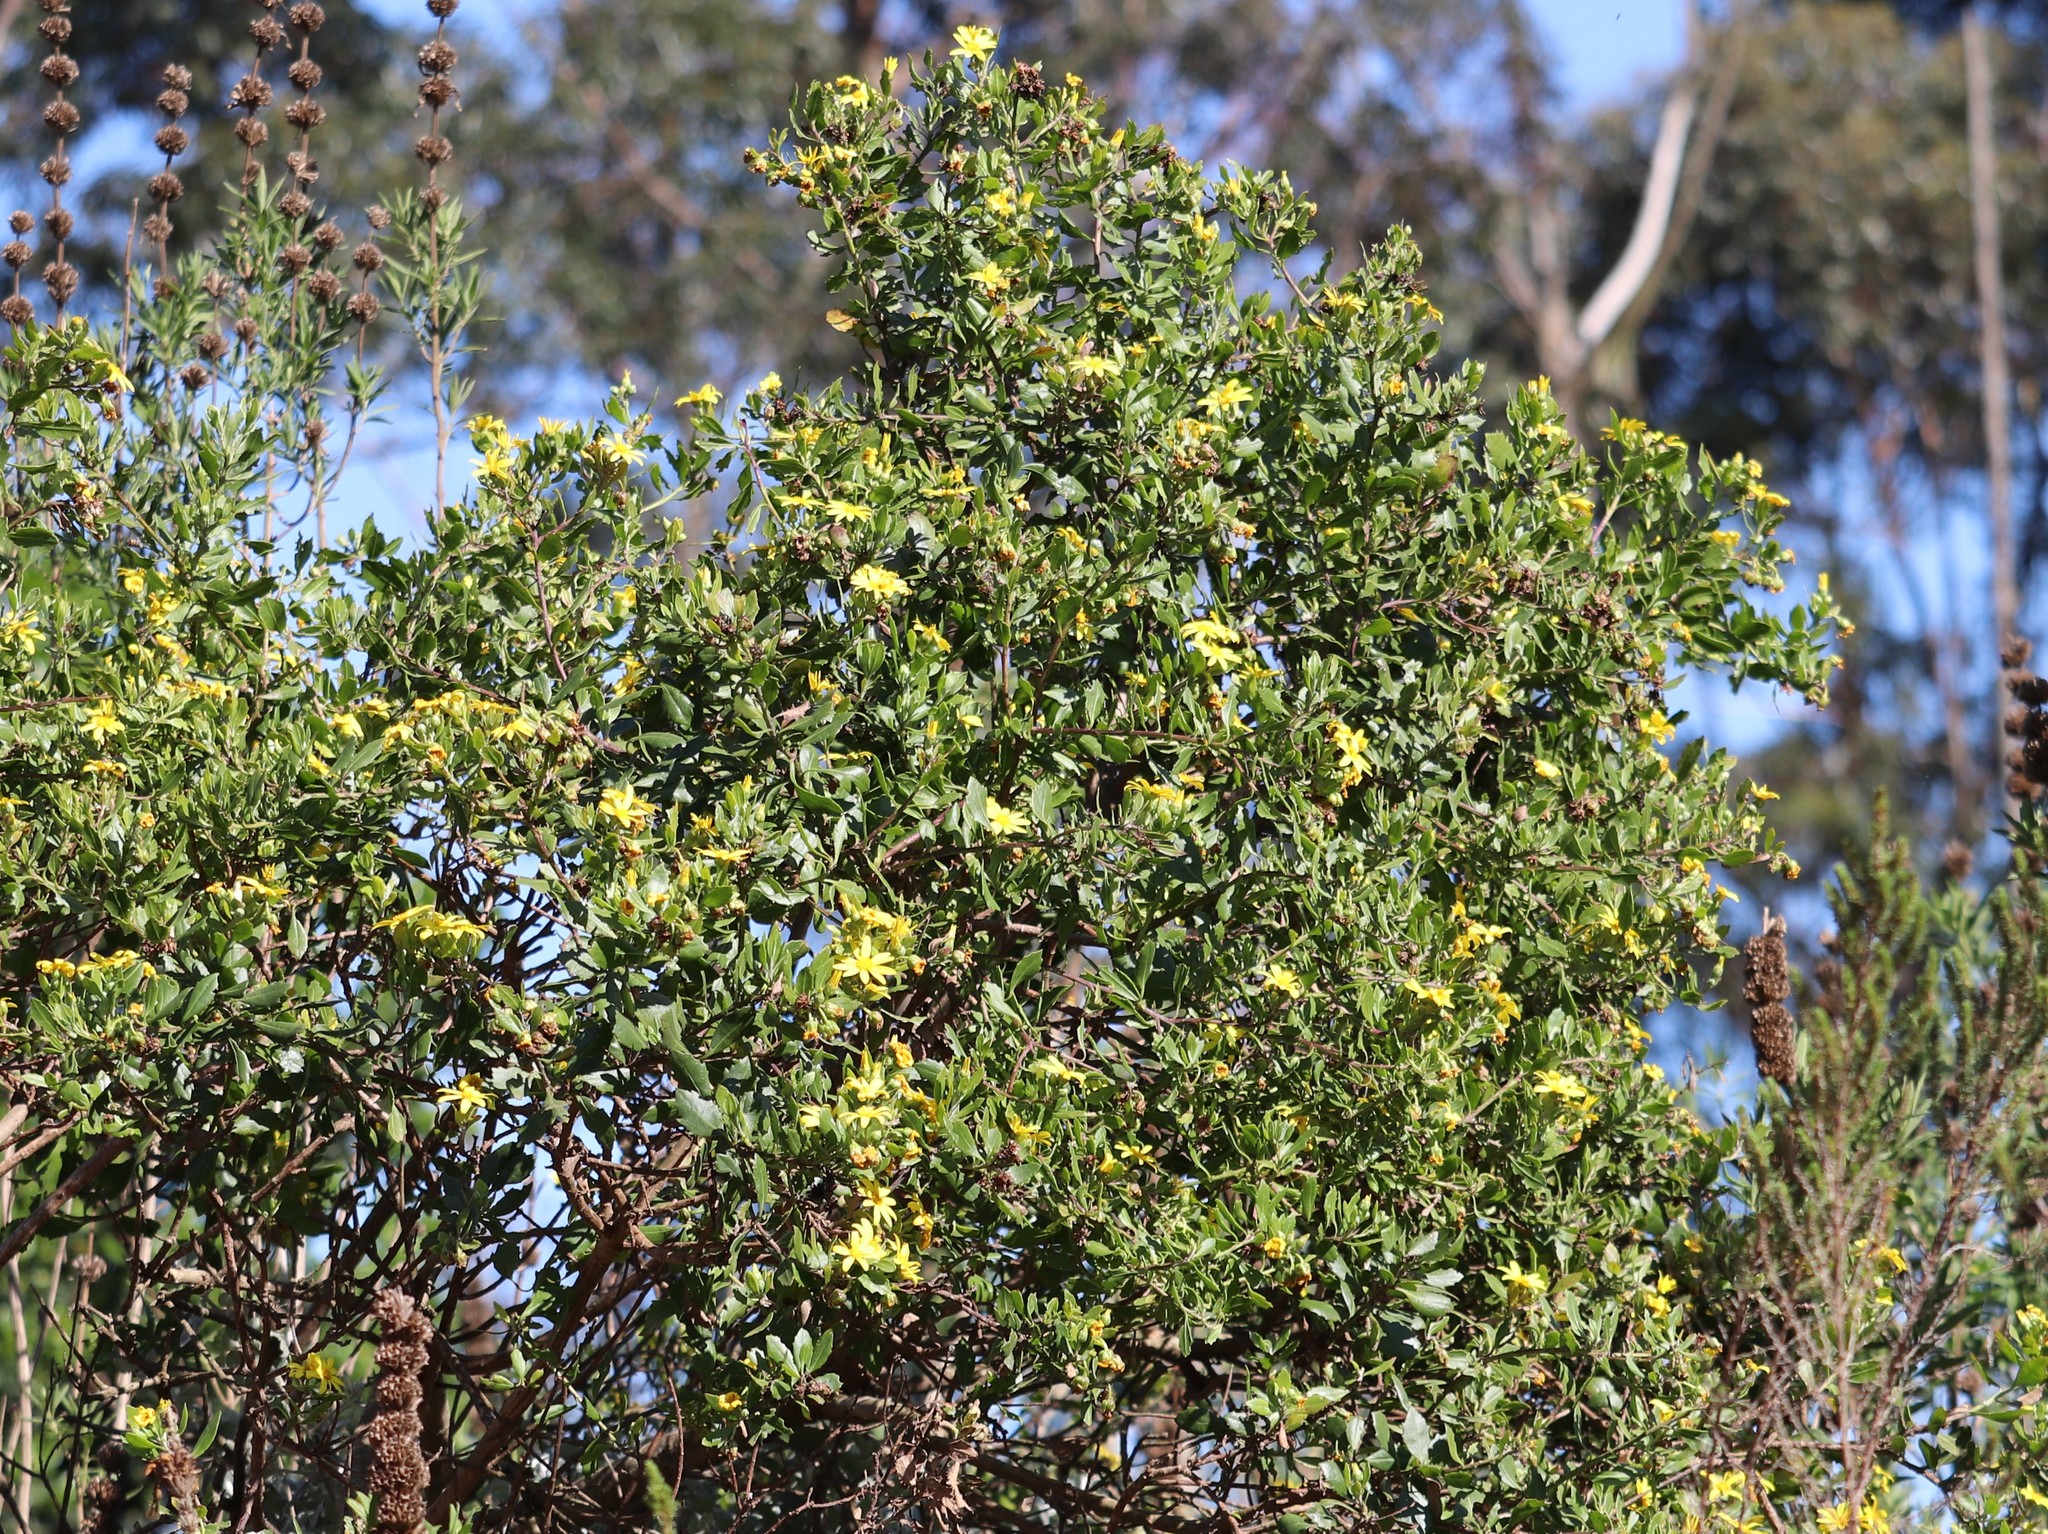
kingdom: Plantae
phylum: Tracheophyta
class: Magnoliopsida
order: Asterales
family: Asteraceae
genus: Osteospermum
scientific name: Osteospermum moniliferum
